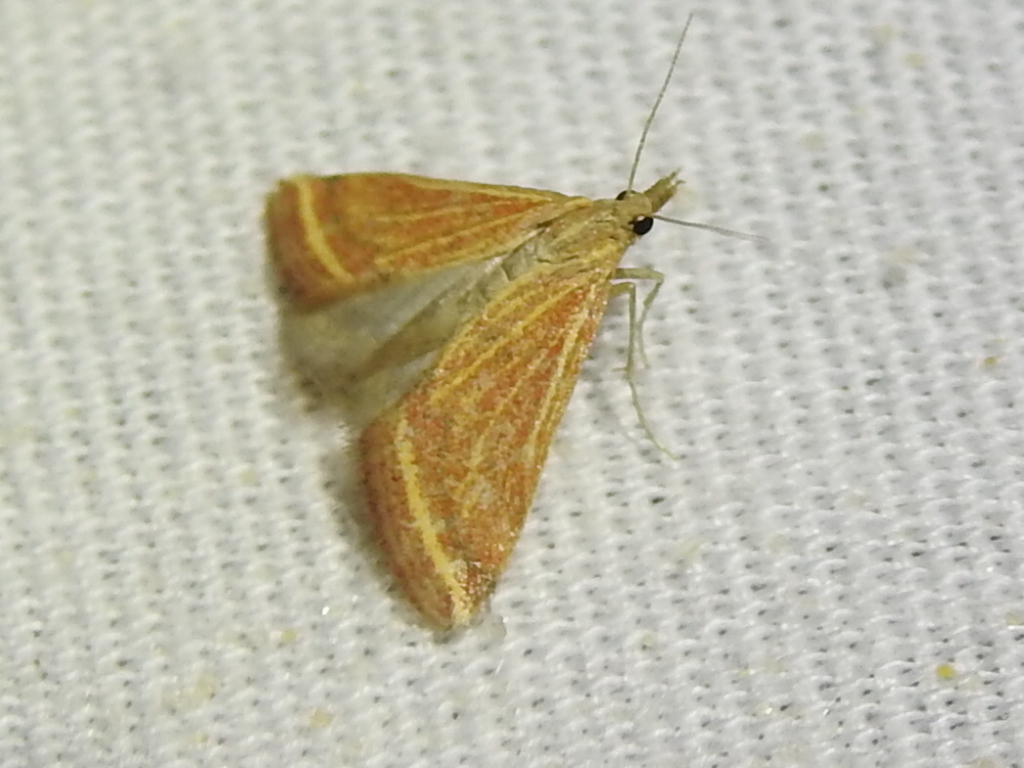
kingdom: Animalia
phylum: Arthropoda
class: Insecta
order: Lepidoptera
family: Crambidae
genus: Microtheoris
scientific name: Microtheoris ophionalis
